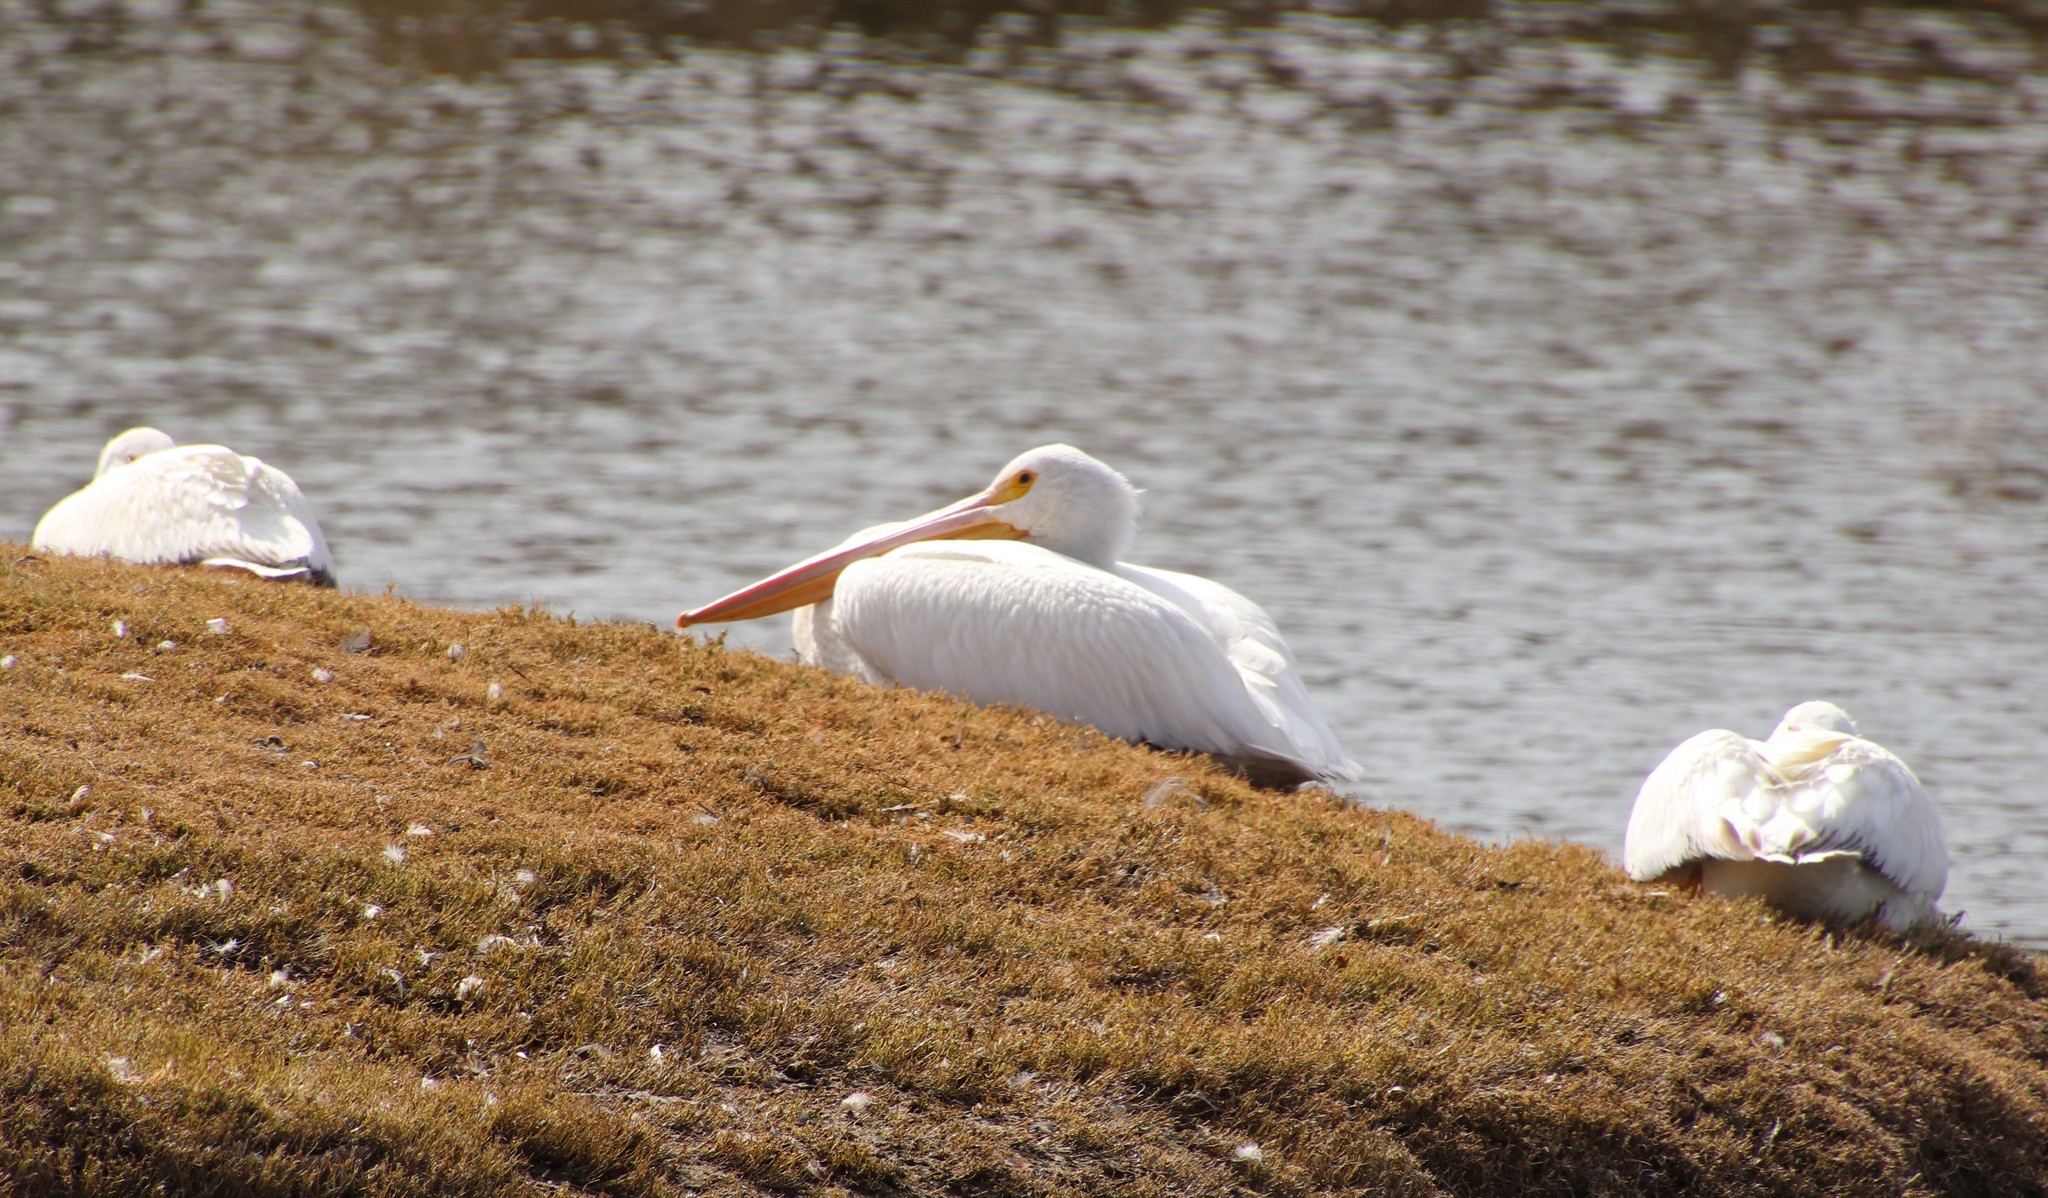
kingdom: Animalia
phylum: Chordata
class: Aves
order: Pelecaniformes
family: Pelecanidae
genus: Pelecanus
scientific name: Pelecanus erythrorhynchos
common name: American white pelican
